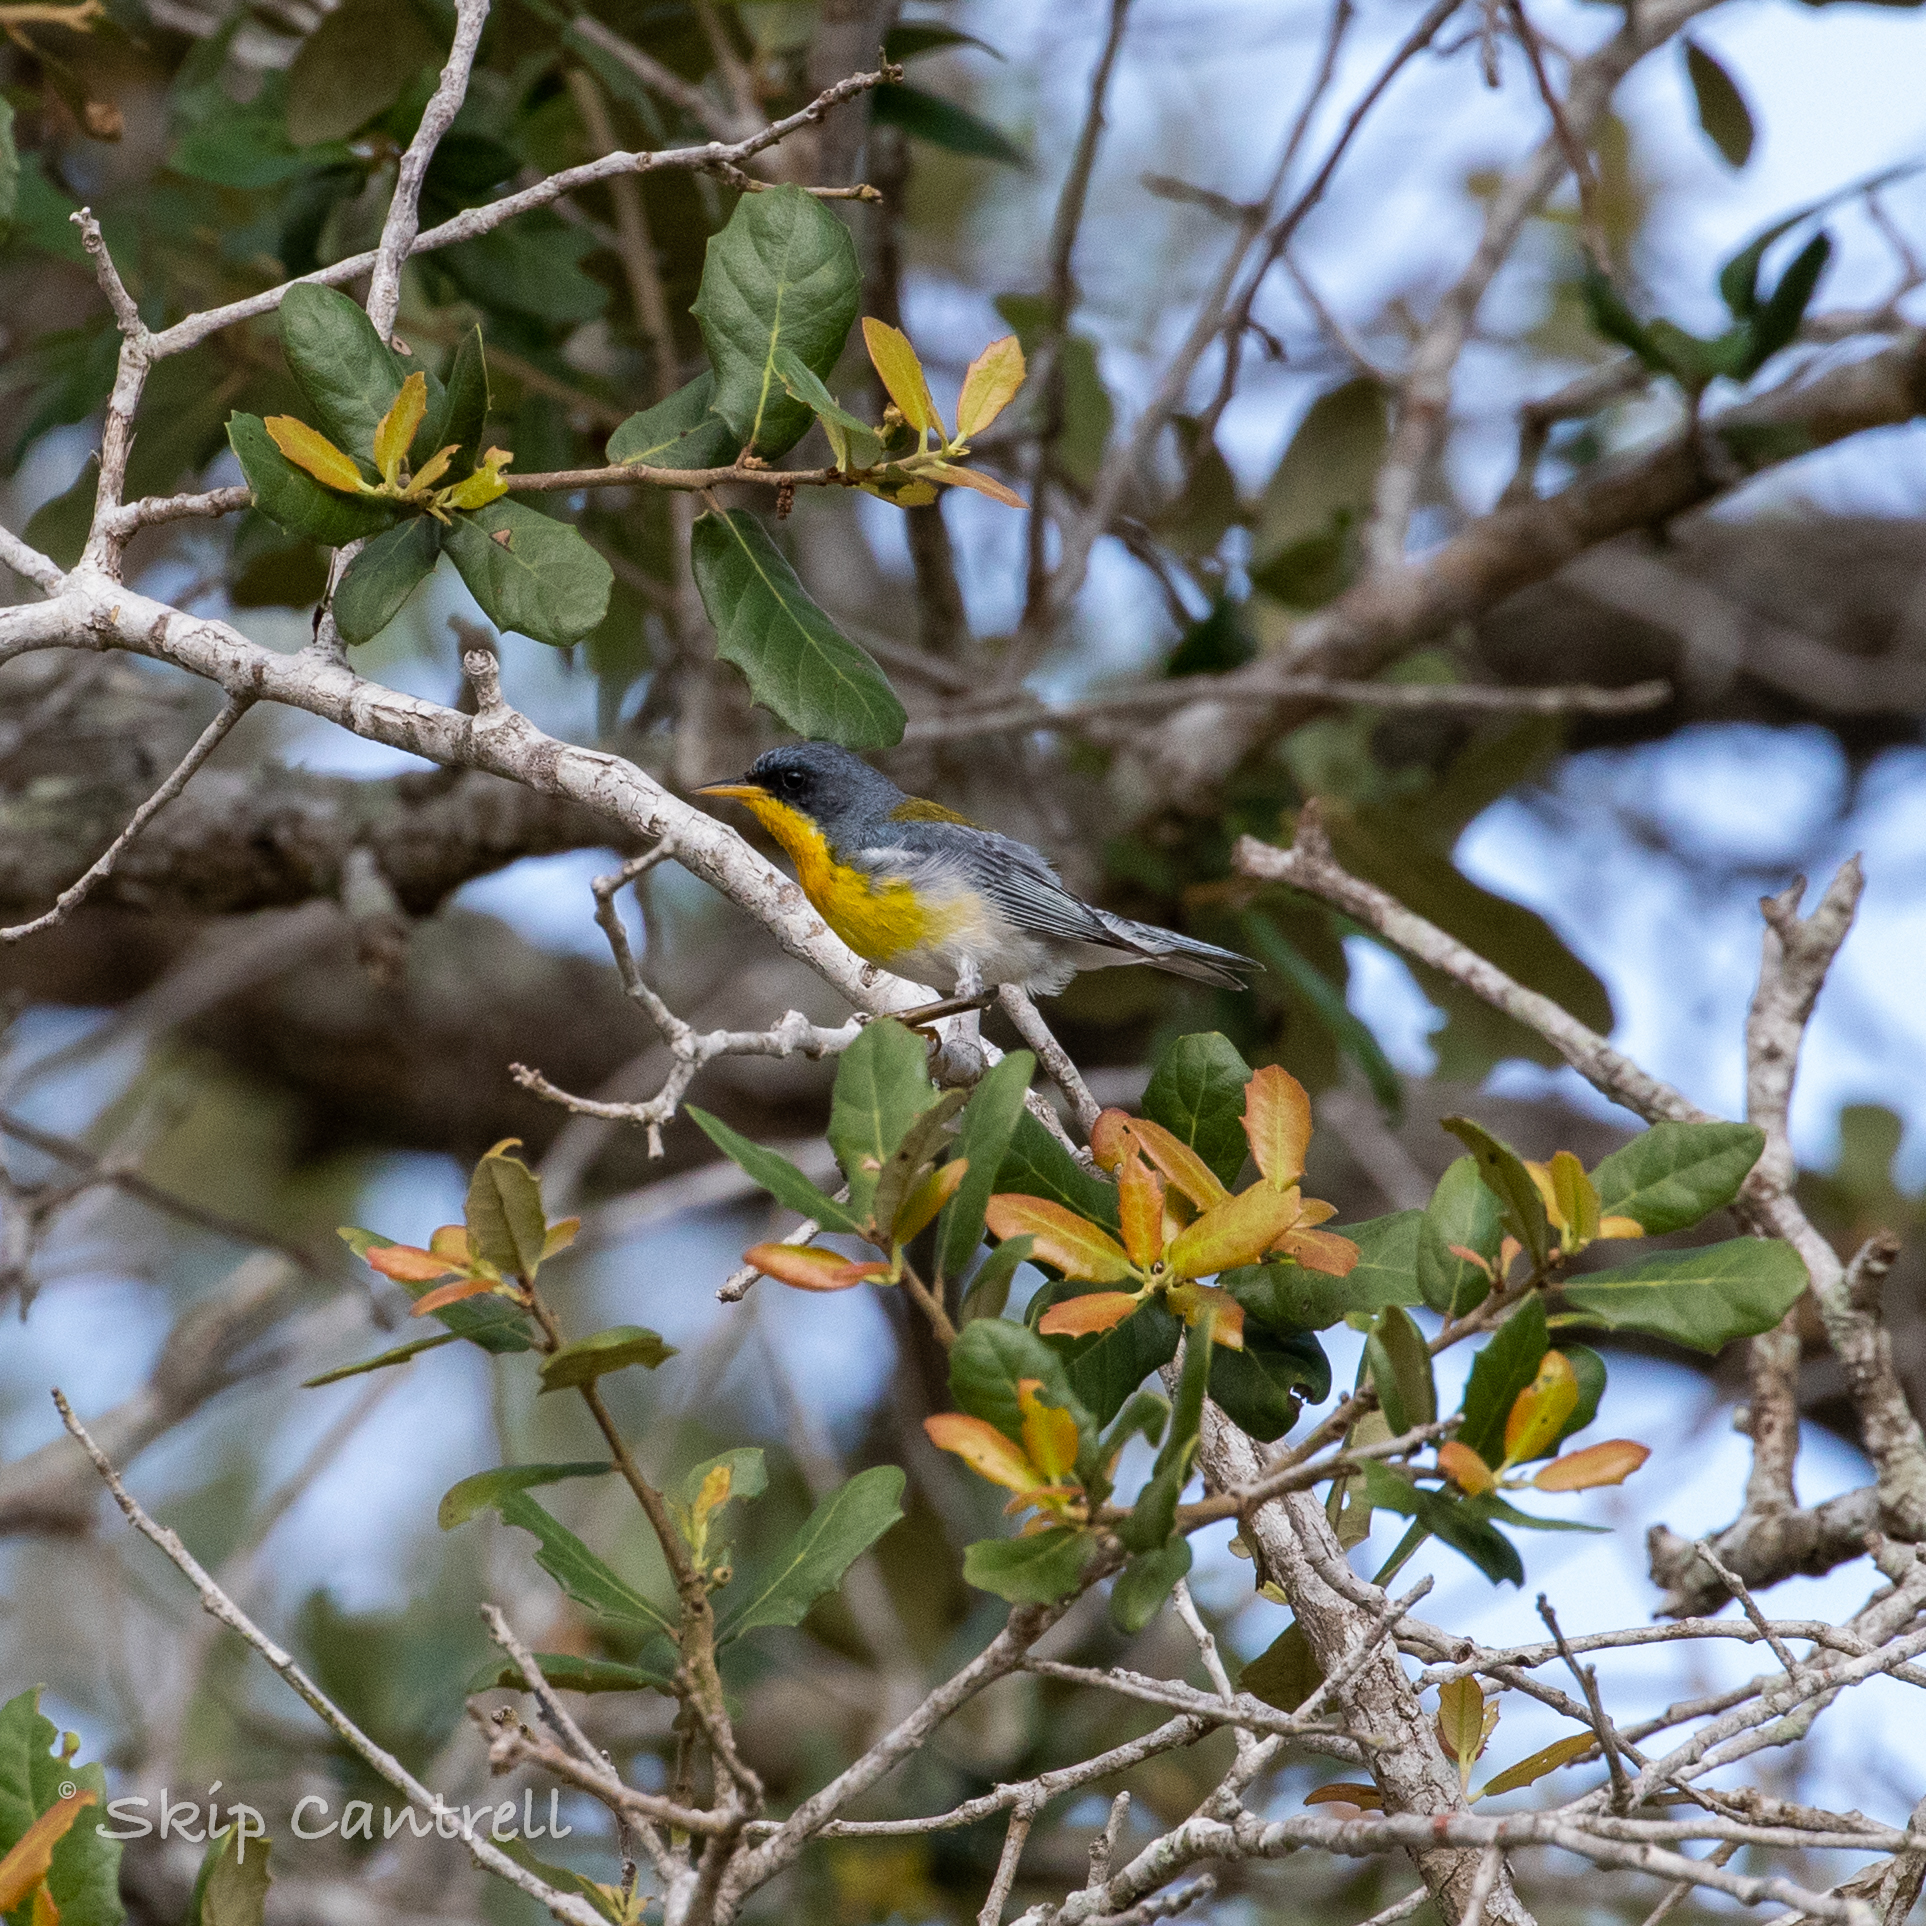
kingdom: Animalia
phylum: Chordata
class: Aves
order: Passeriformes
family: Parulidae
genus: Setophaga
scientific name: Setophaga pitiayumi
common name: Tropical parula
